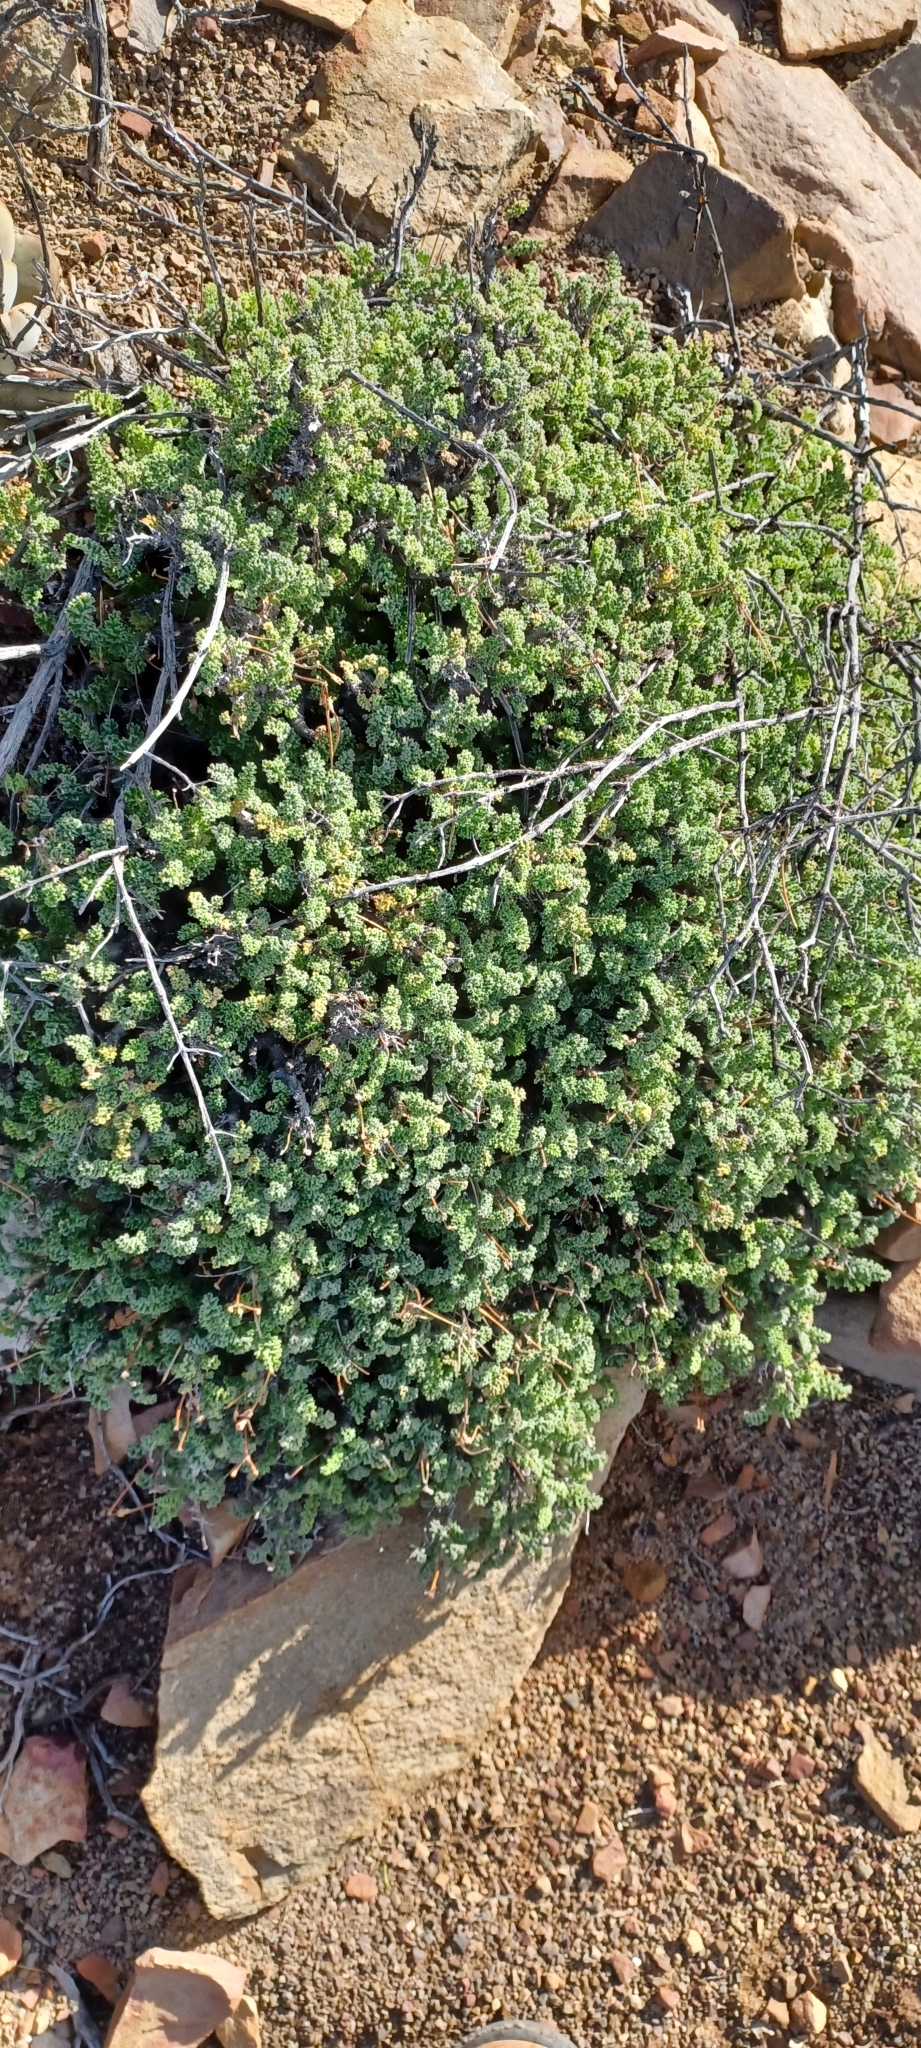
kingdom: Plantae
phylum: Tracheophyta
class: Magnoliopsida
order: Geraniales
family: Geraniaceae
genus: Pelargonium
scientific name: Pelargonium alternans
